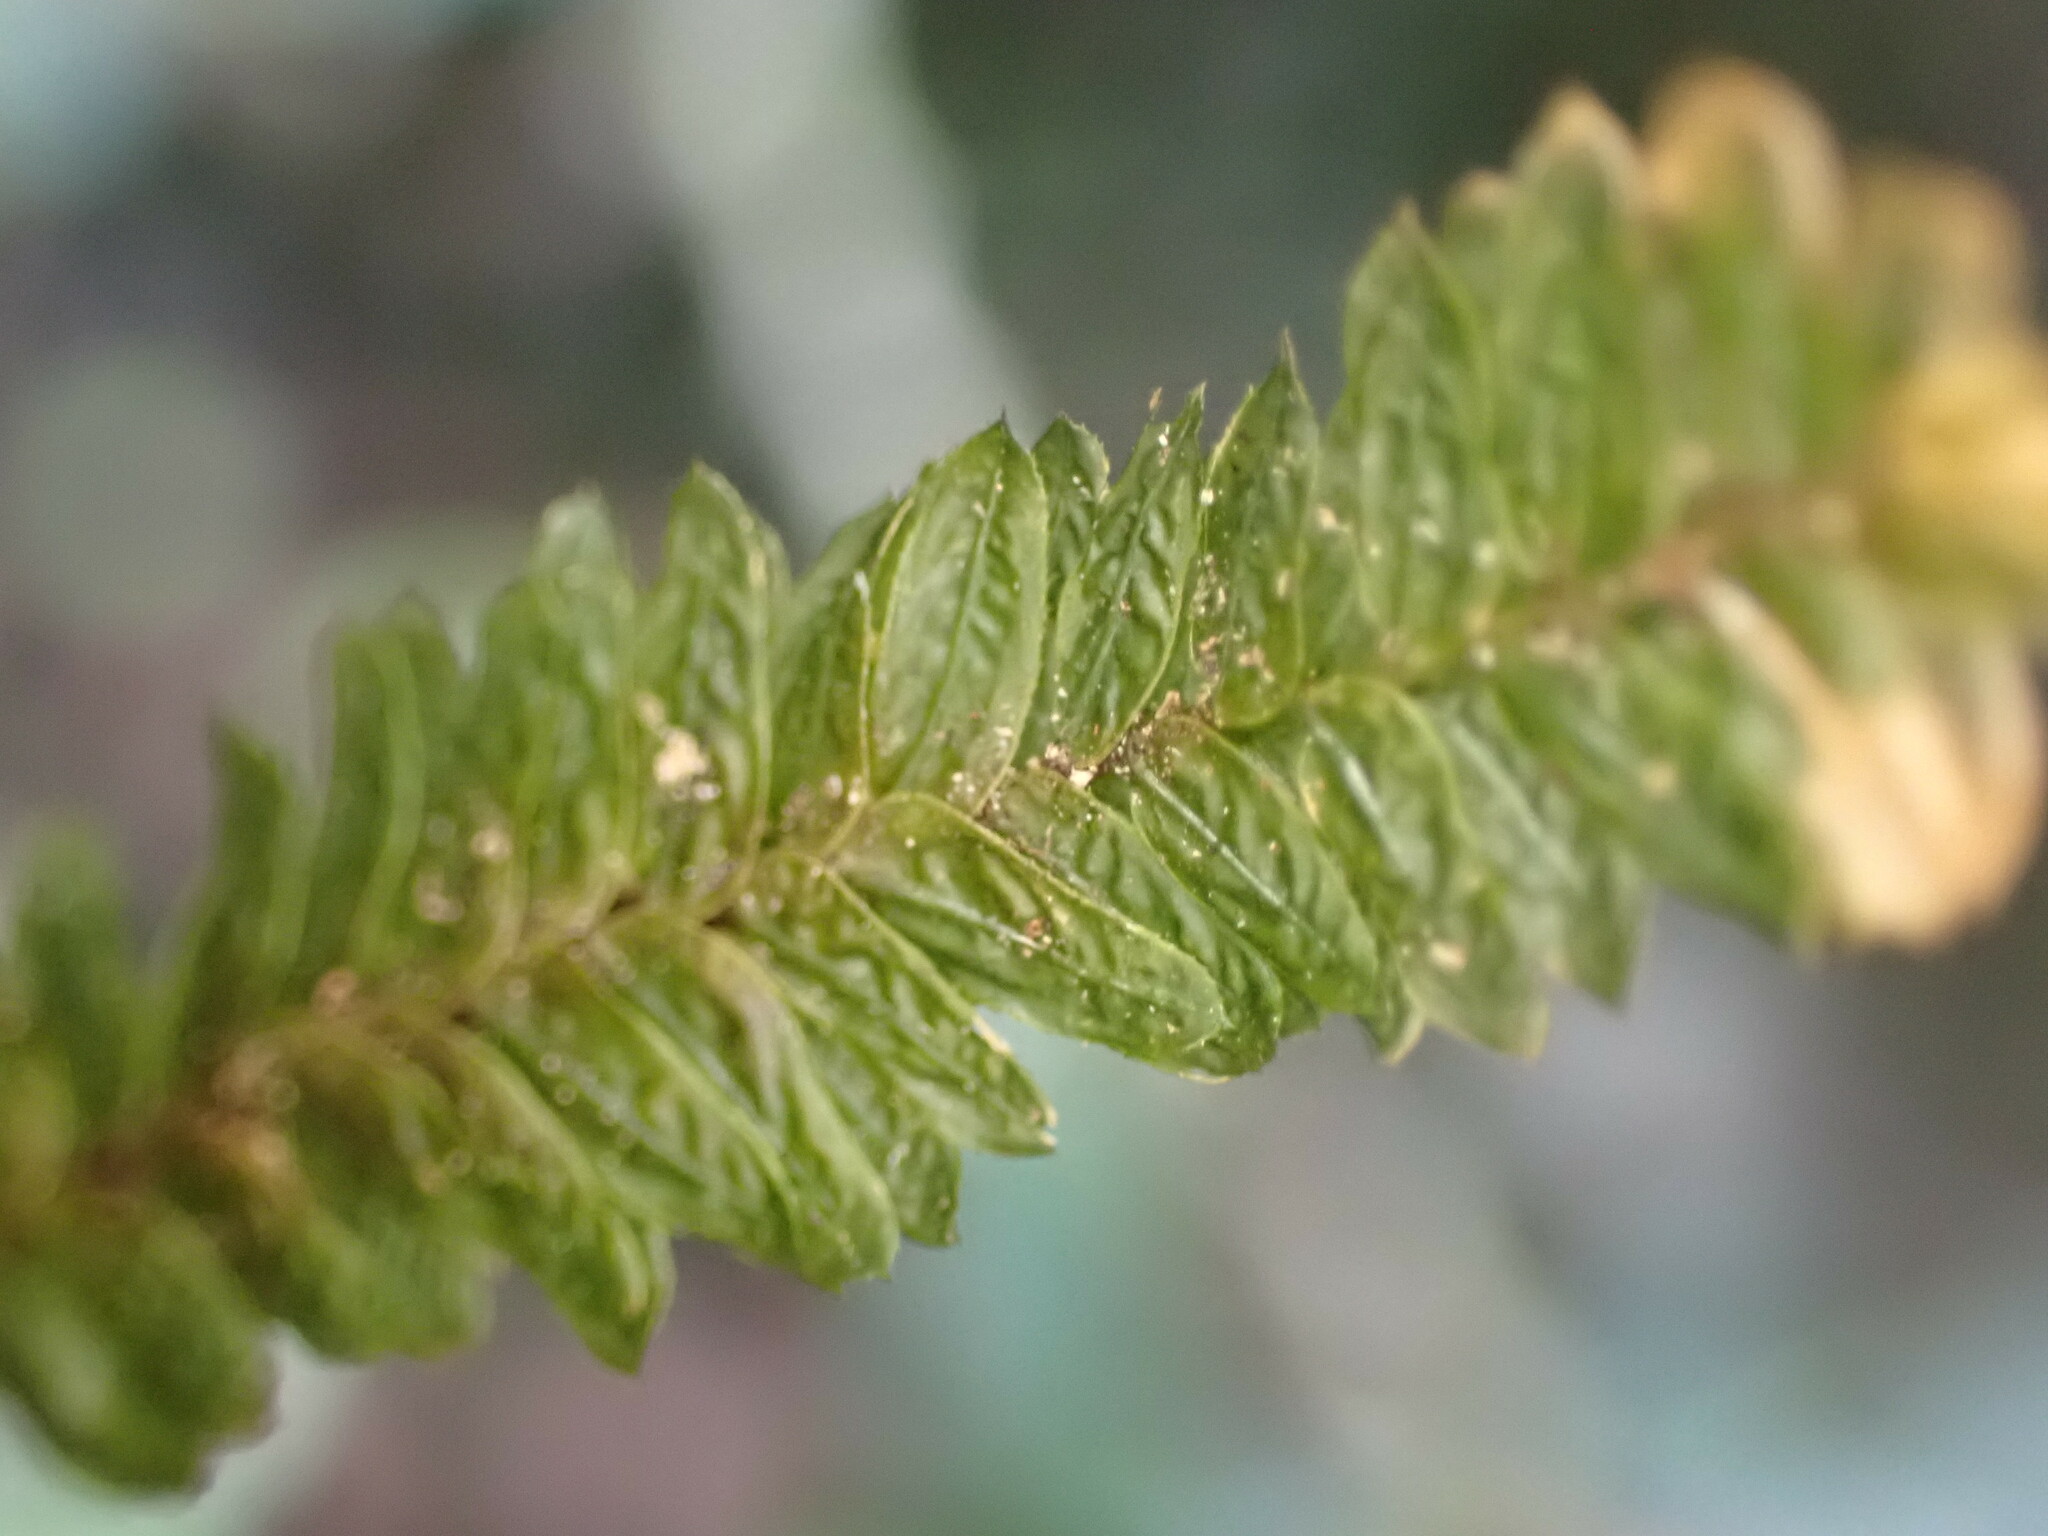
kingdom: Plantae
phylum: Bryophyta
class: Bryopsida
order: Aulacomniales
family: Aulacomniaceae
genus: Mesochaete
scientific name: Mesochaete undulata
